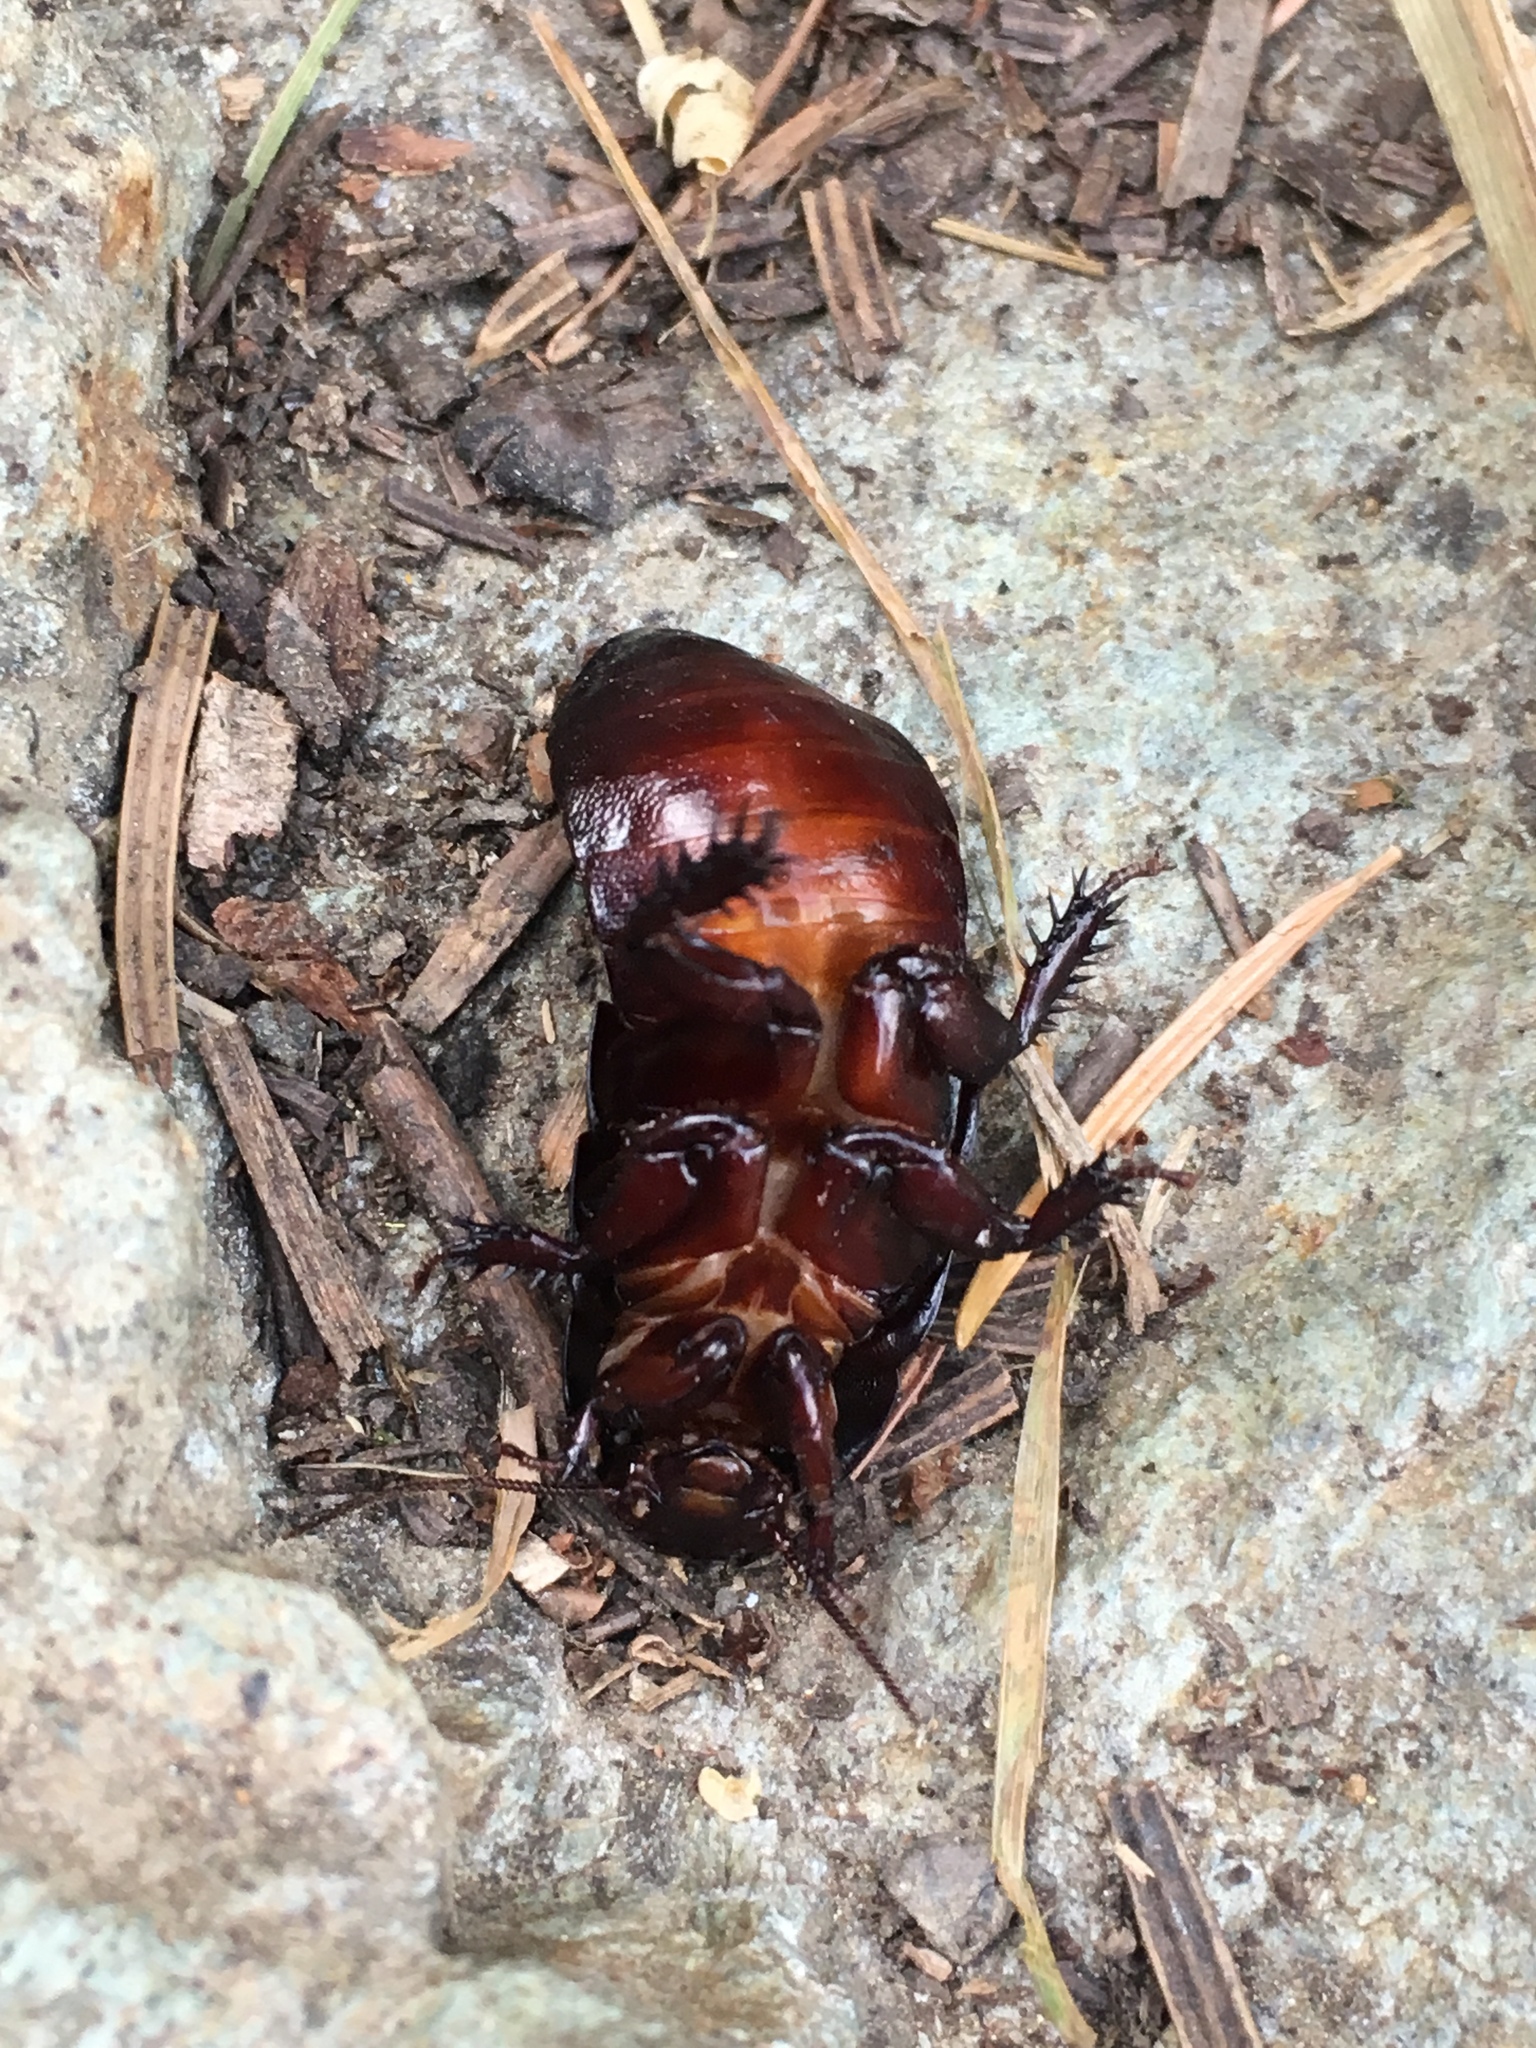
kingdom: Animalia
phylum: Arthropoda
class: Insecta
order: Blattodea
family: Cryptocercidae
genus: Cryptocercus
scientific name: Cryptocercus clevelandi
